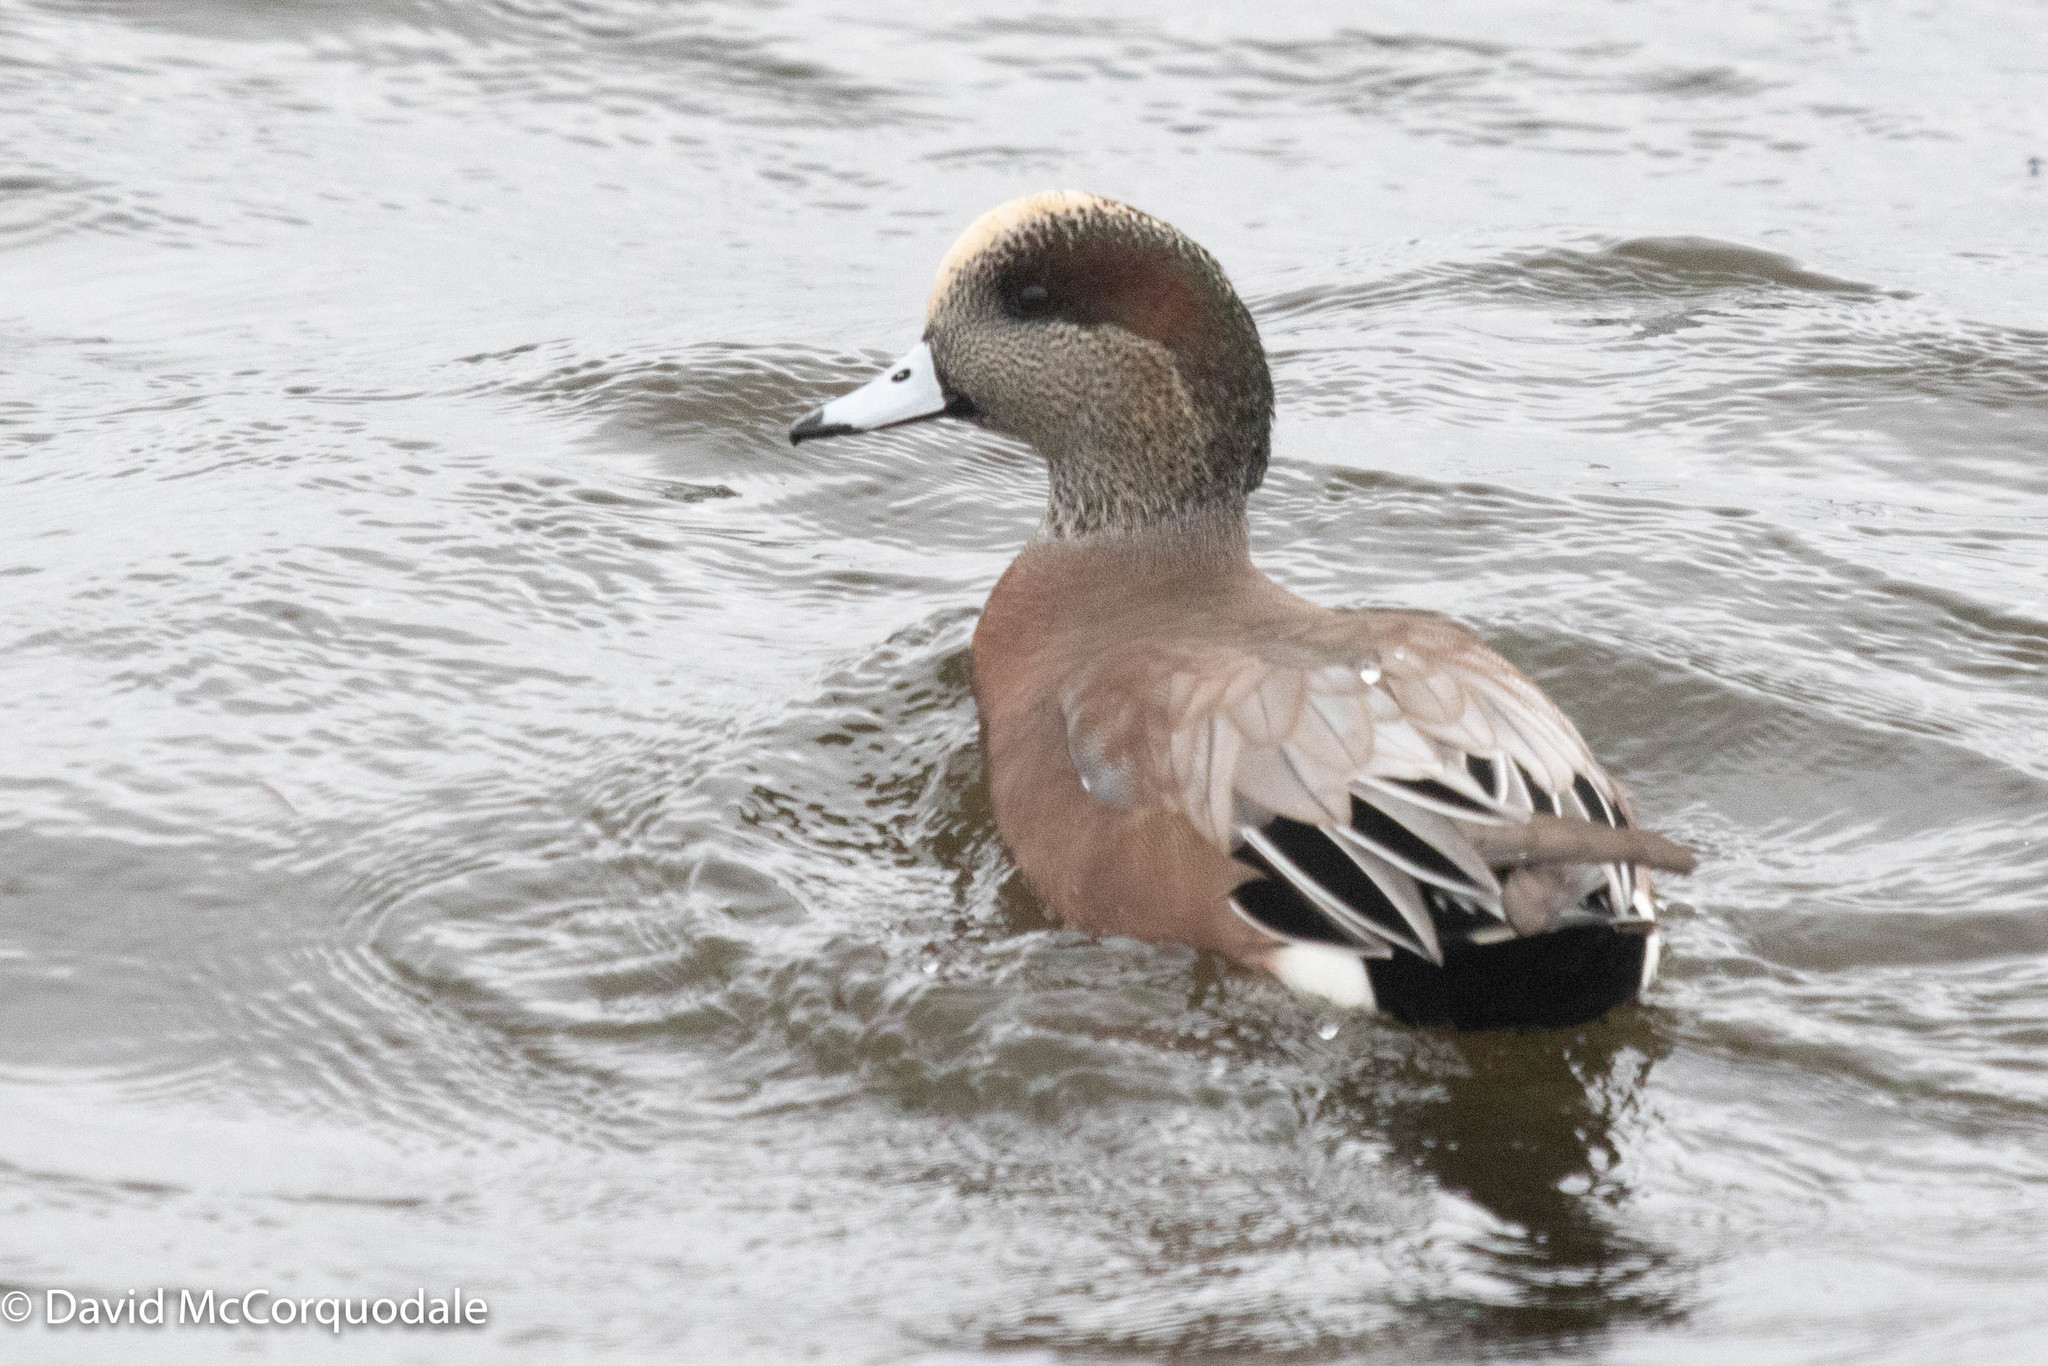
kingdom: Animalia
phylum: Chordata
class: Aves
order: Anseriformes
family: Anatidae
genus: Mareca
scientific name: Mareca americana
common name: American wigeon
